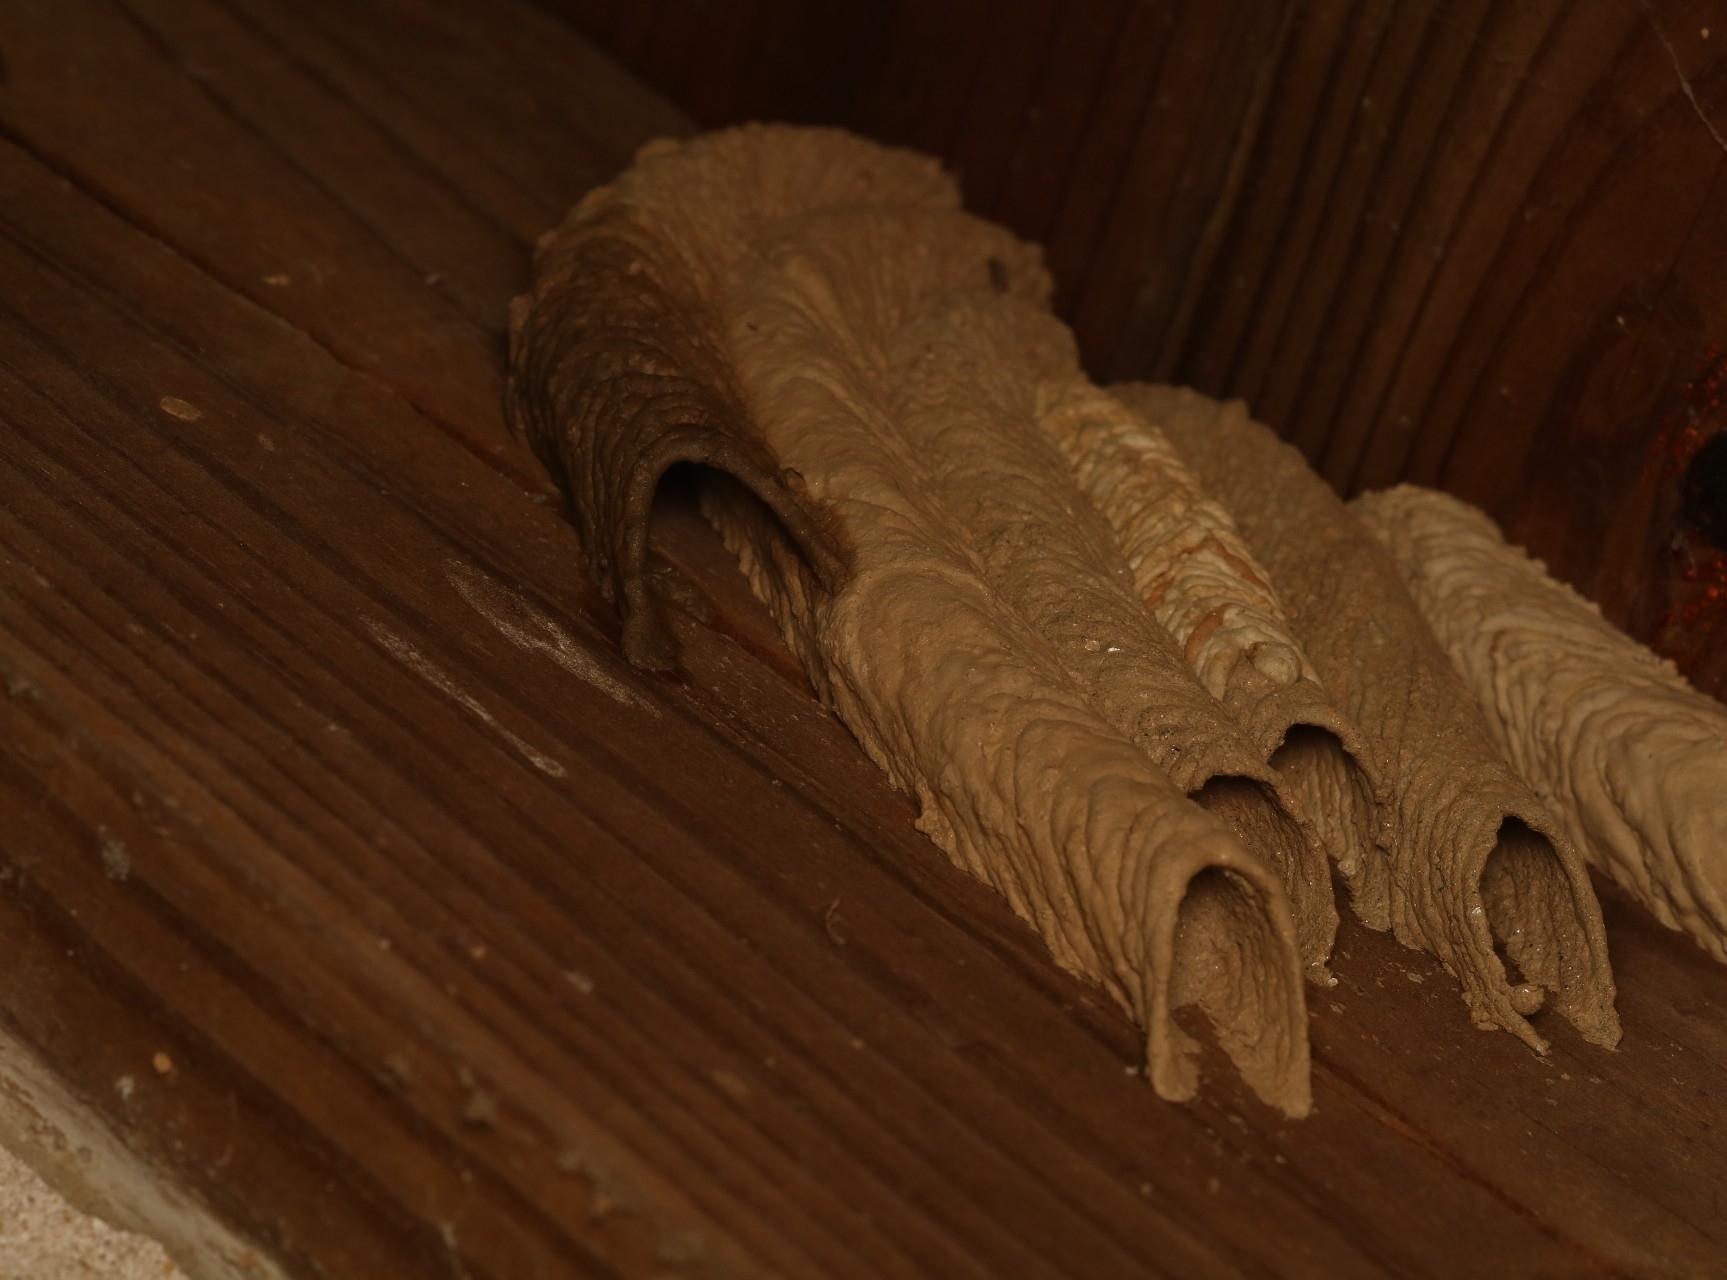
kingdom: Animalia
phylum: Arthropoda
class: Insecta
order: Hymenoptera
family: Crabronidae
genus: Trypoxylon
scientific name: Trypoxylon politum
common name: Organ-pipe mud-dauber wasp
